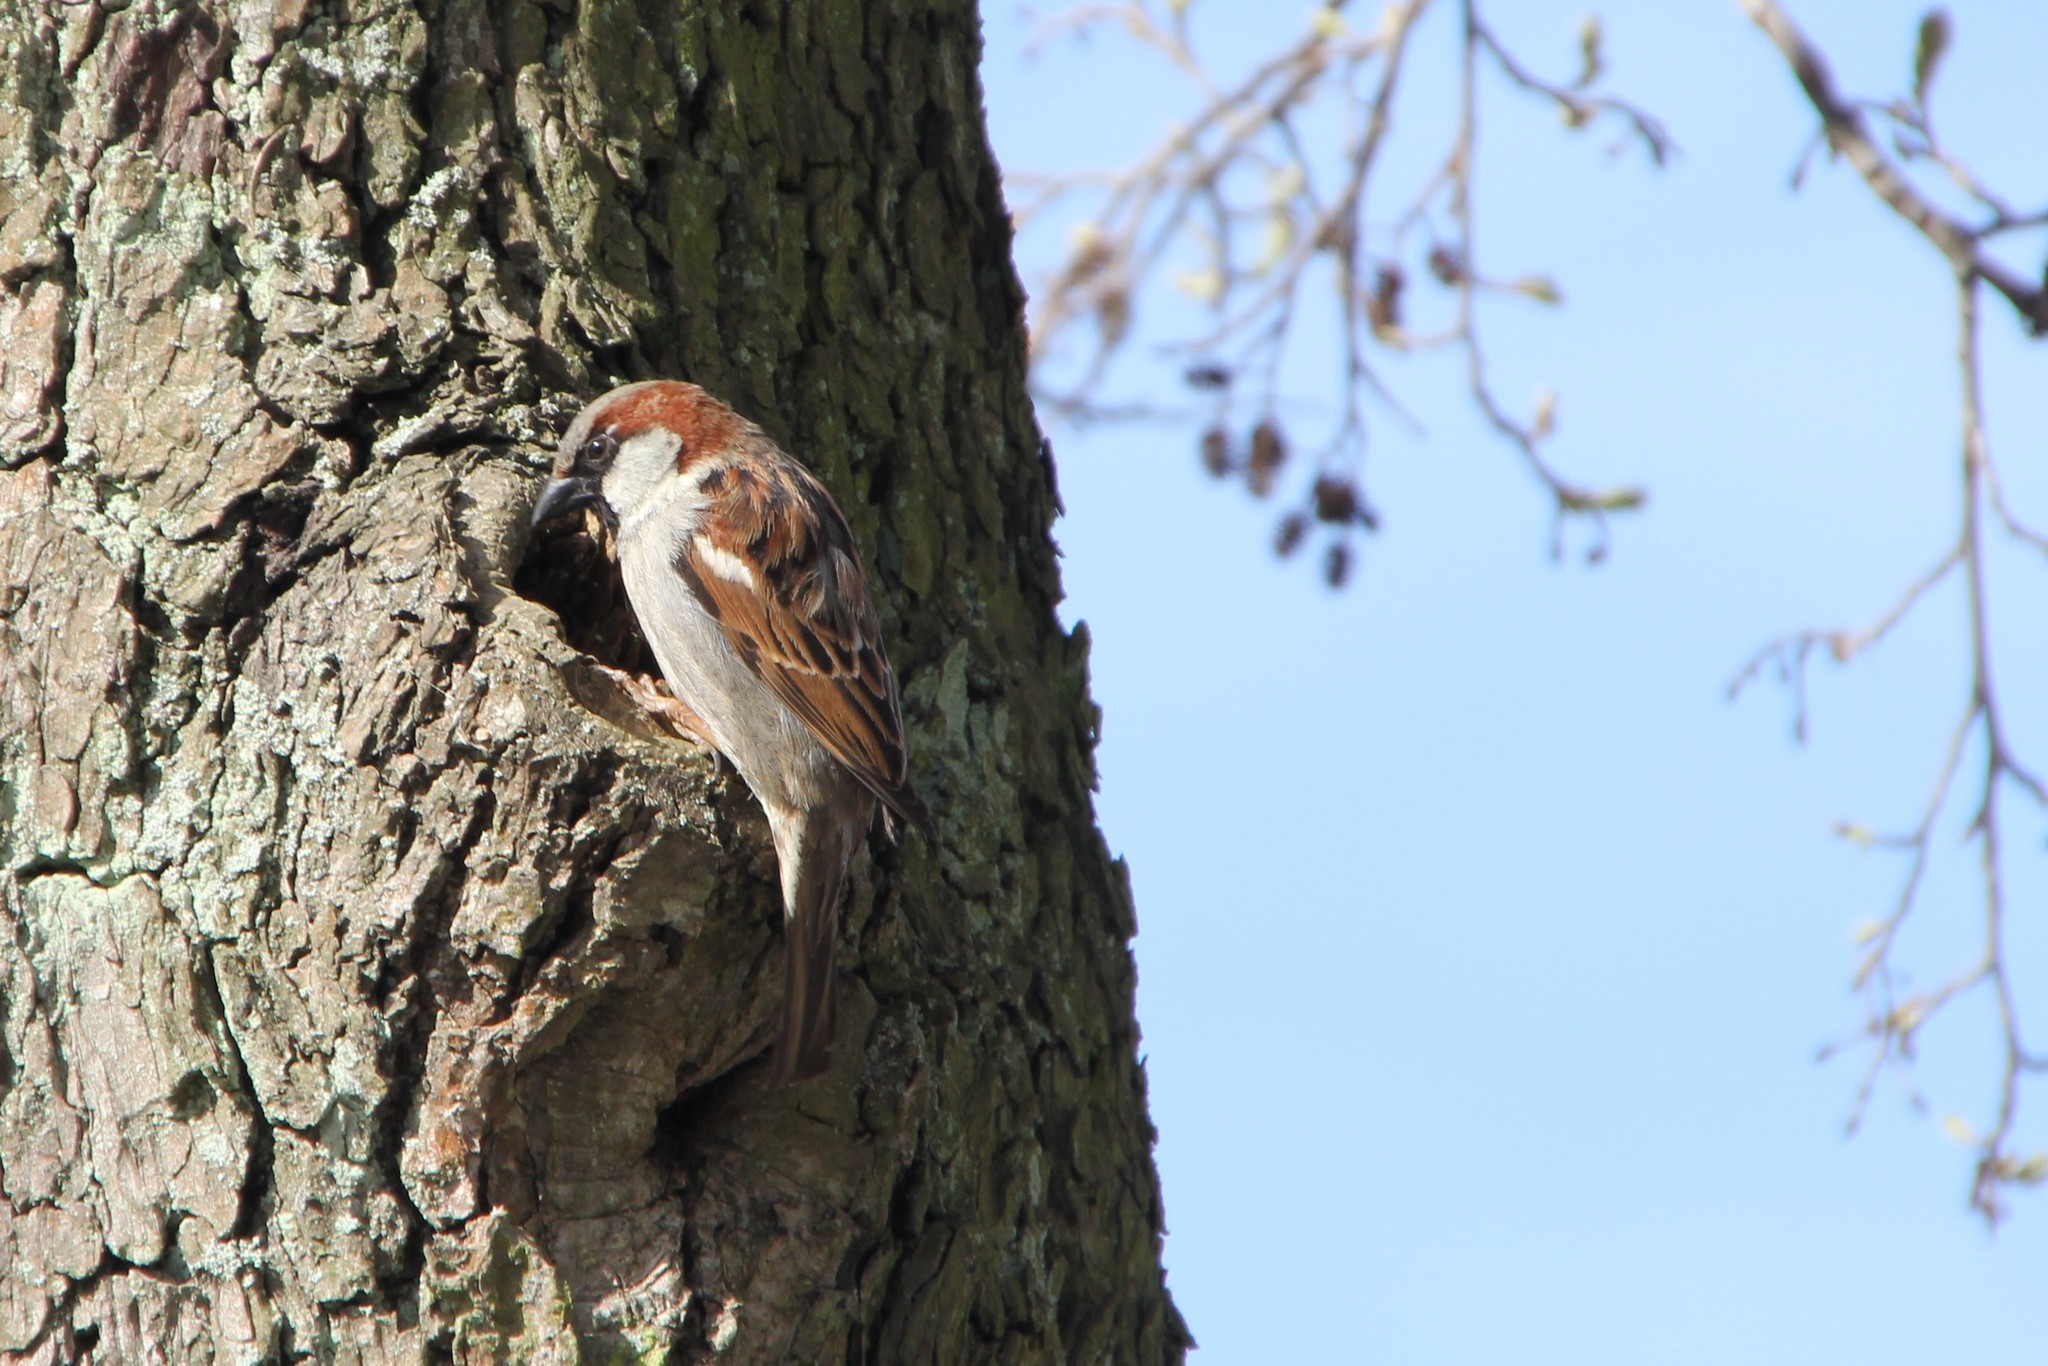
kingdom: Animalia
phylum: Chordata
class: Aves
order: Passeriformes
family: Passeridae
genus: Passer
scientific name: Passer domesticus
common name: House sparrow
